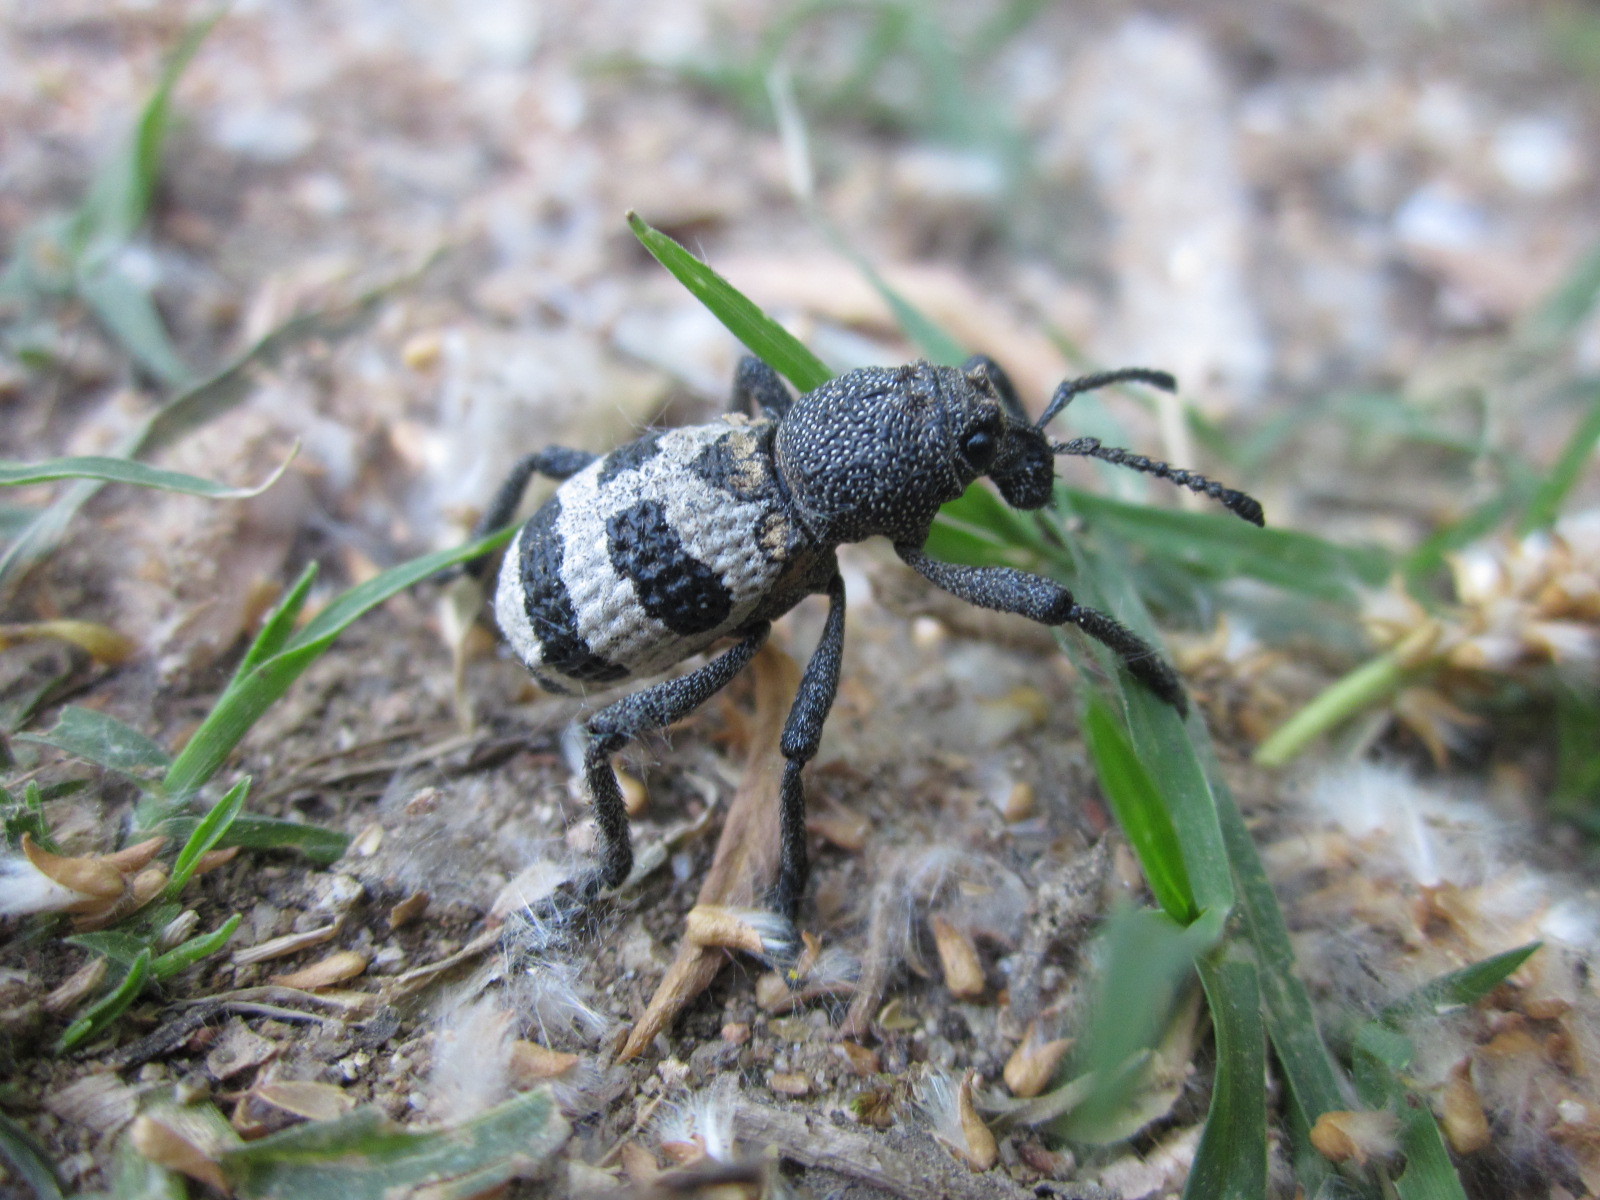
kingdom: Animalia
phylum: Arthropoda
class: Insecta
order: Coleoptera
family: Curculionidae
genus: Aegorhinus
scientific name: Aegorhinus phaleratus
